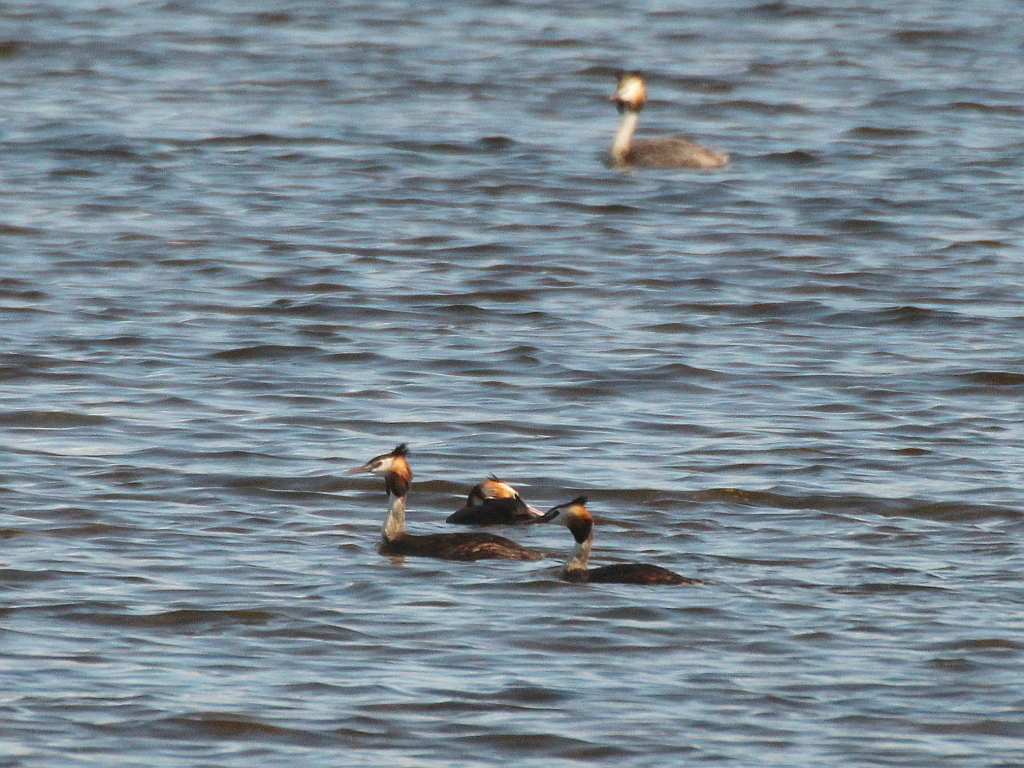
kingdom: Animalia
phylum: Chordata
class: Aves
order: Podicipediformes
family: Podicipedidae
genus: Podiceps
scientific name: Podiceps cristatus
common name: Great crested grebe
